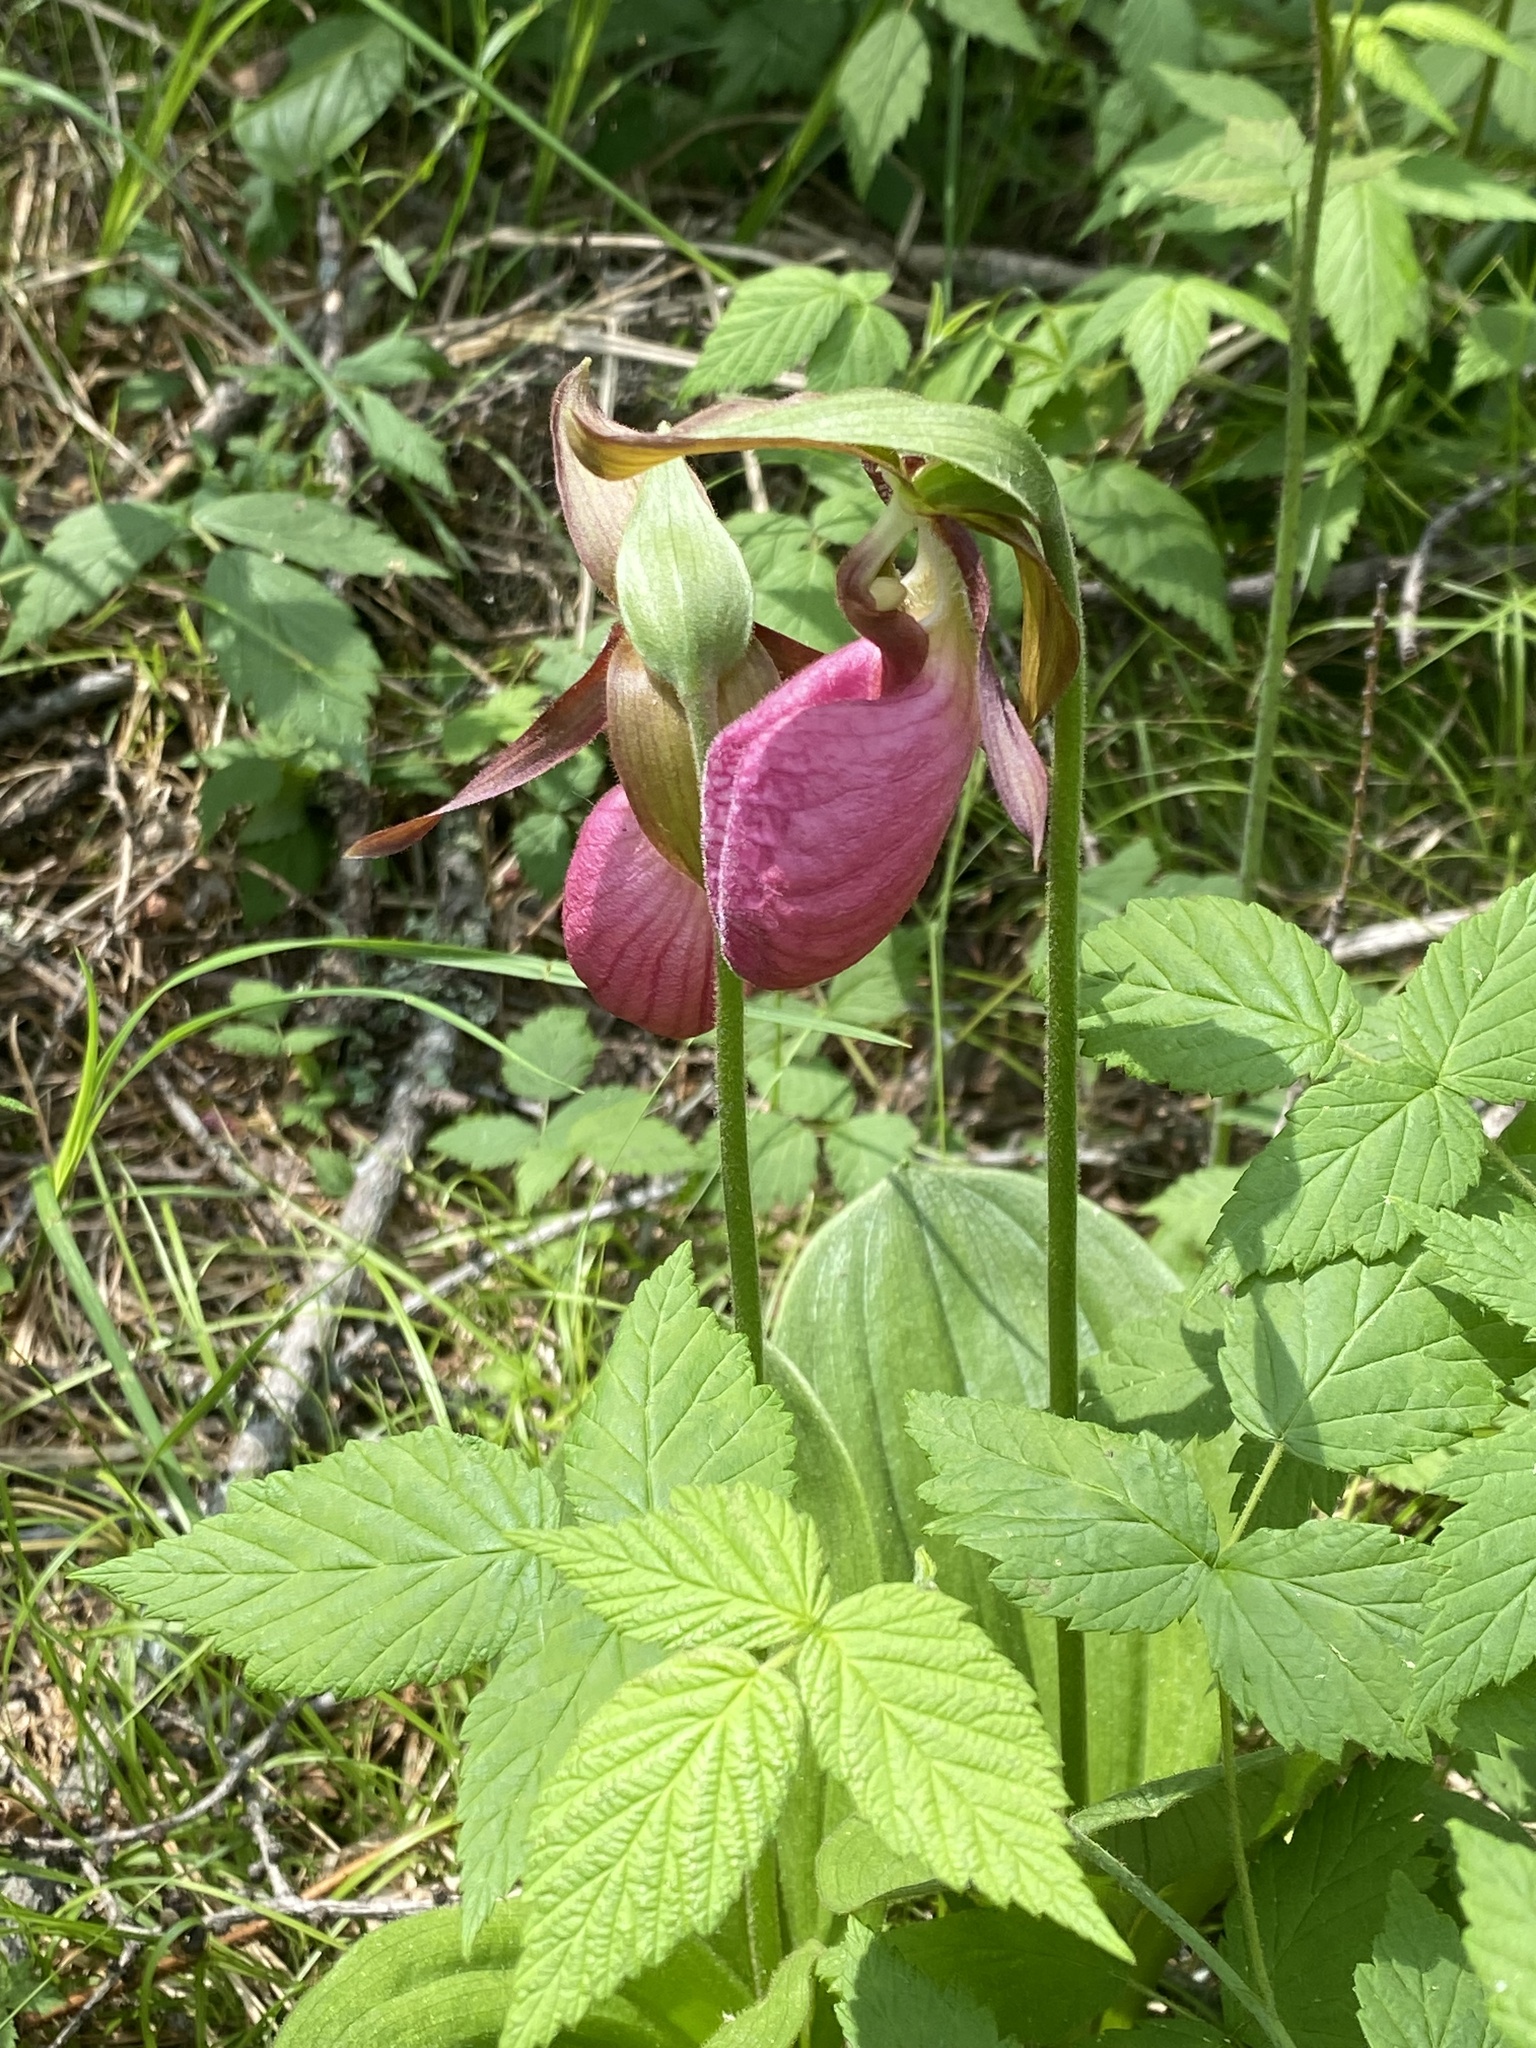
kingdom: Plantae
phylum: Tracheophyta
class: Liliopsida
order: Asparagales
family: Orchidaceae
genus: Cypripedium
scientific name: Cypripedium acaule
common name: Pink lady's-slipper
